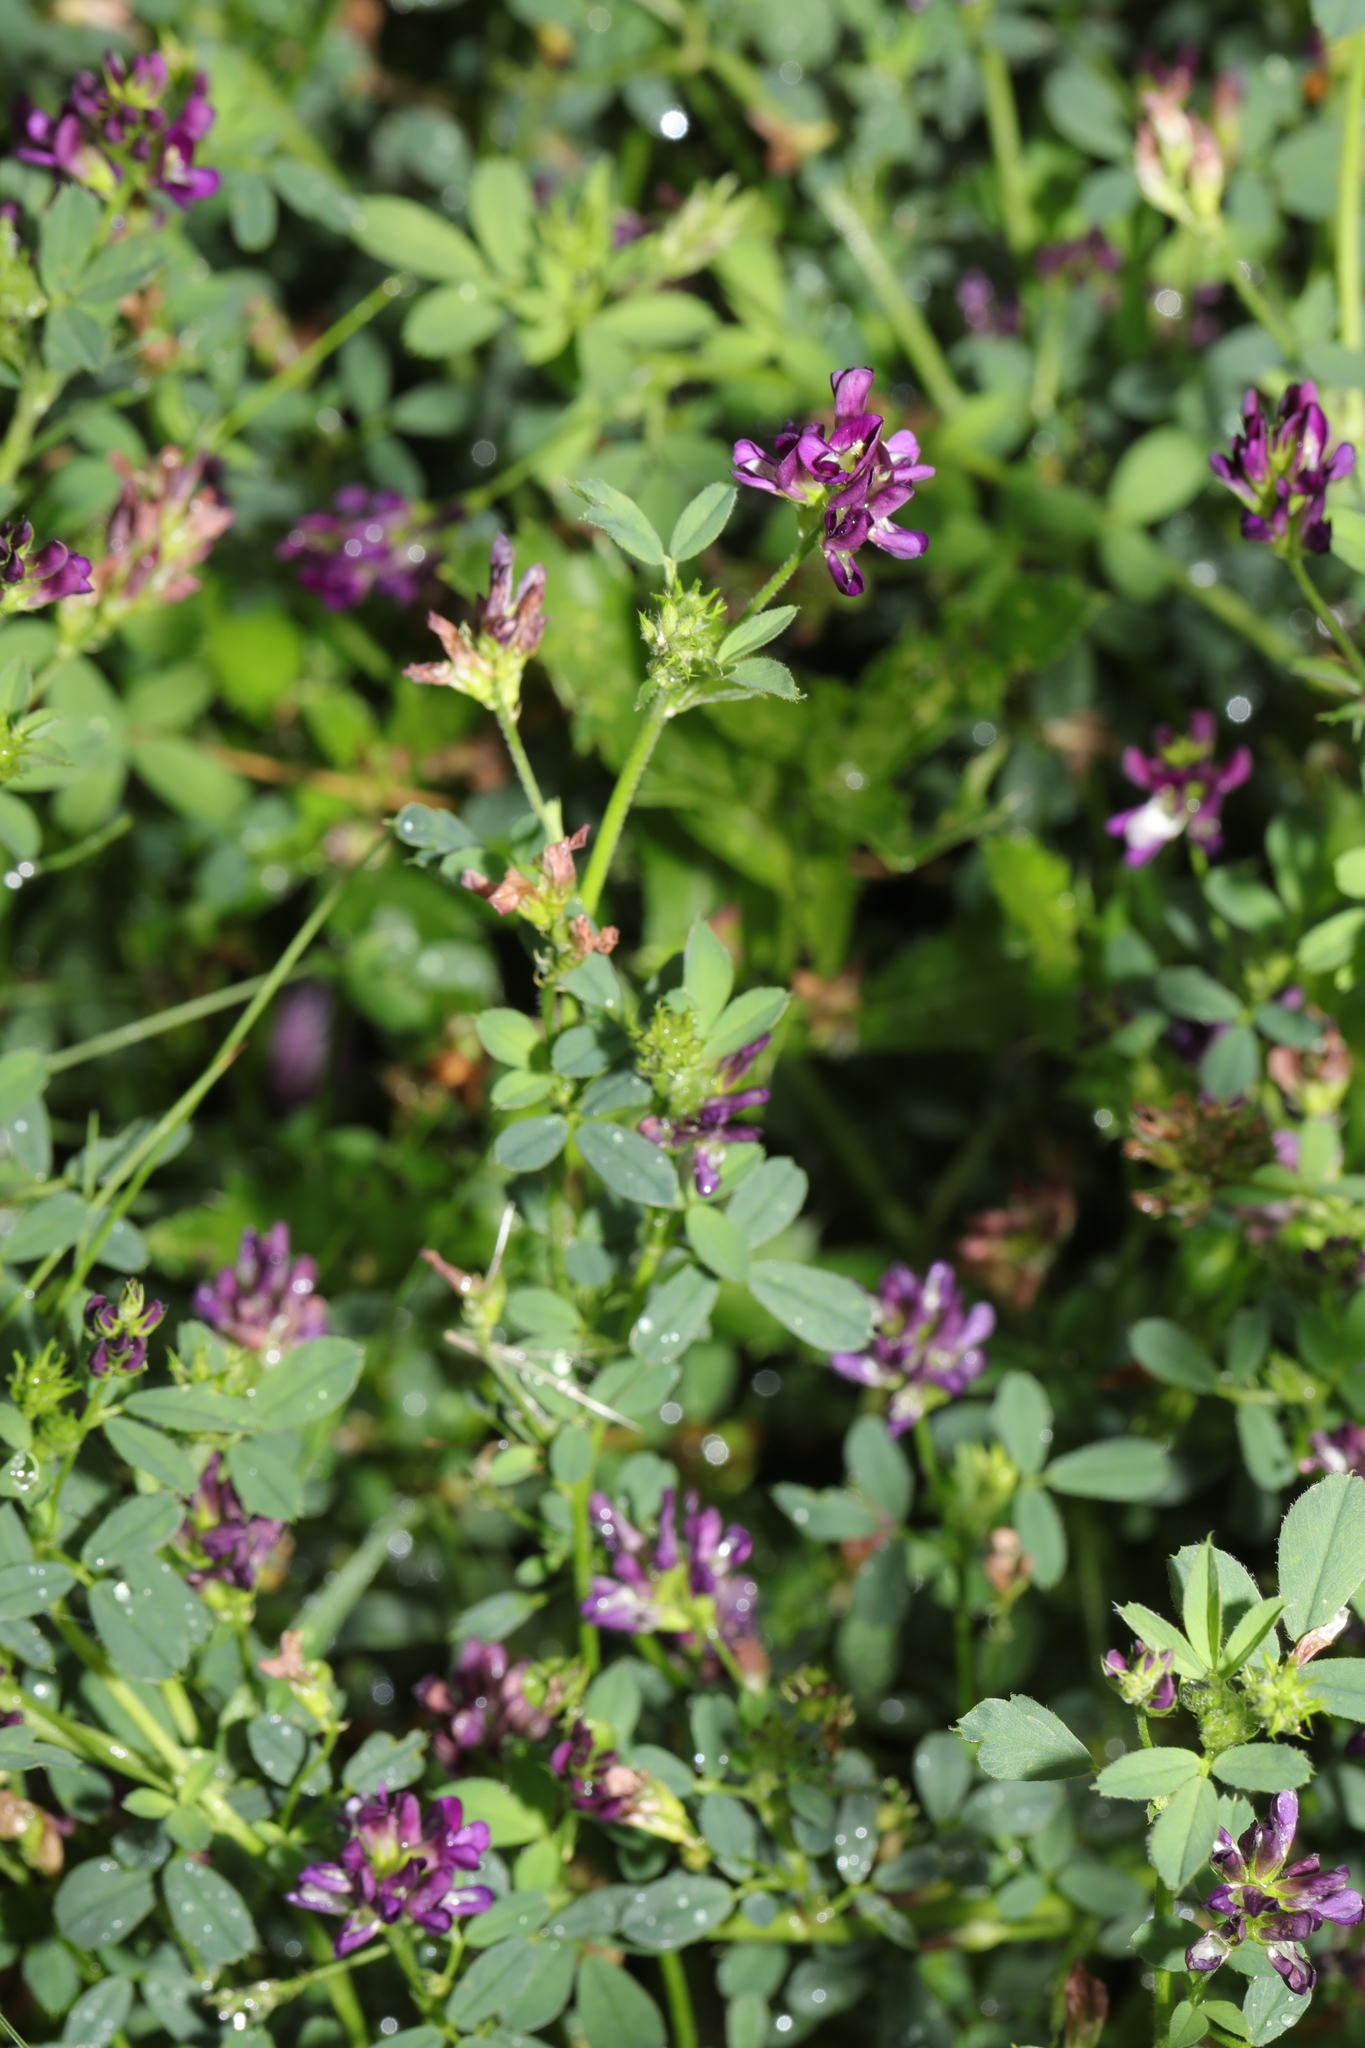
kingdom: Plantae
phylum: Tracheophyta
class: Magnoliopsida
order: Fabales
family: Fabaceae
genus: Medicago
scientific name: Medicago sativa
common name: Alfalfa
